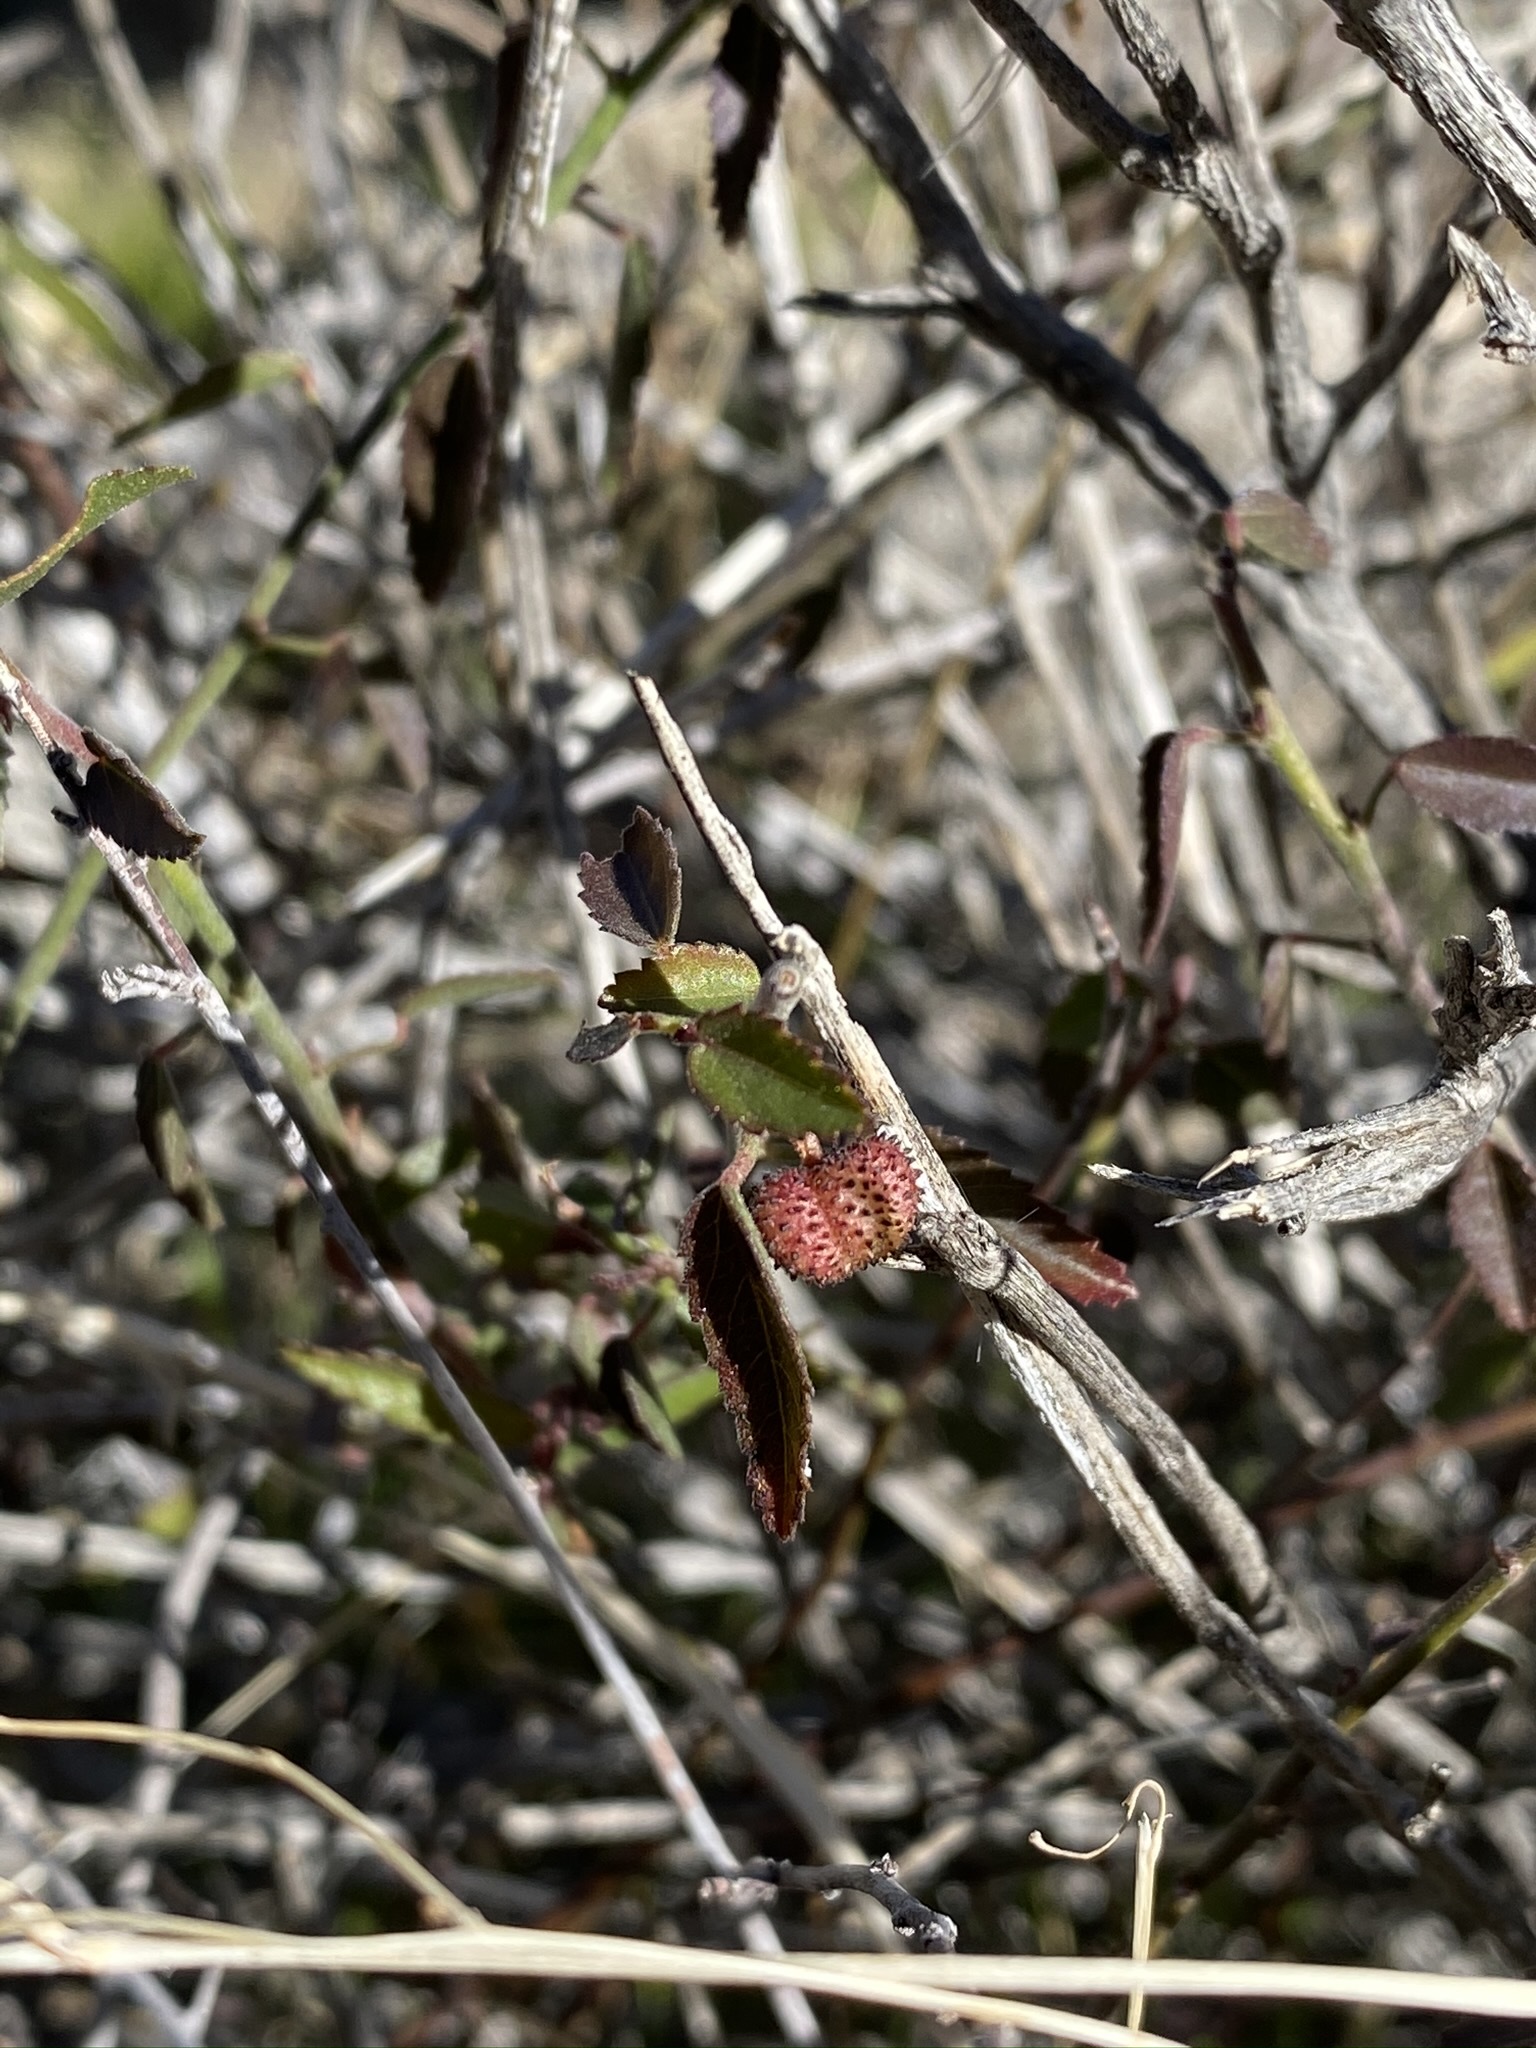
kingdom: Plantae
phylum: Tracheophyta
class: Magnoliopsida
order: Malvales
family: Malvaceae
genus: Ayenia
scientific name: Ayenia compacta
